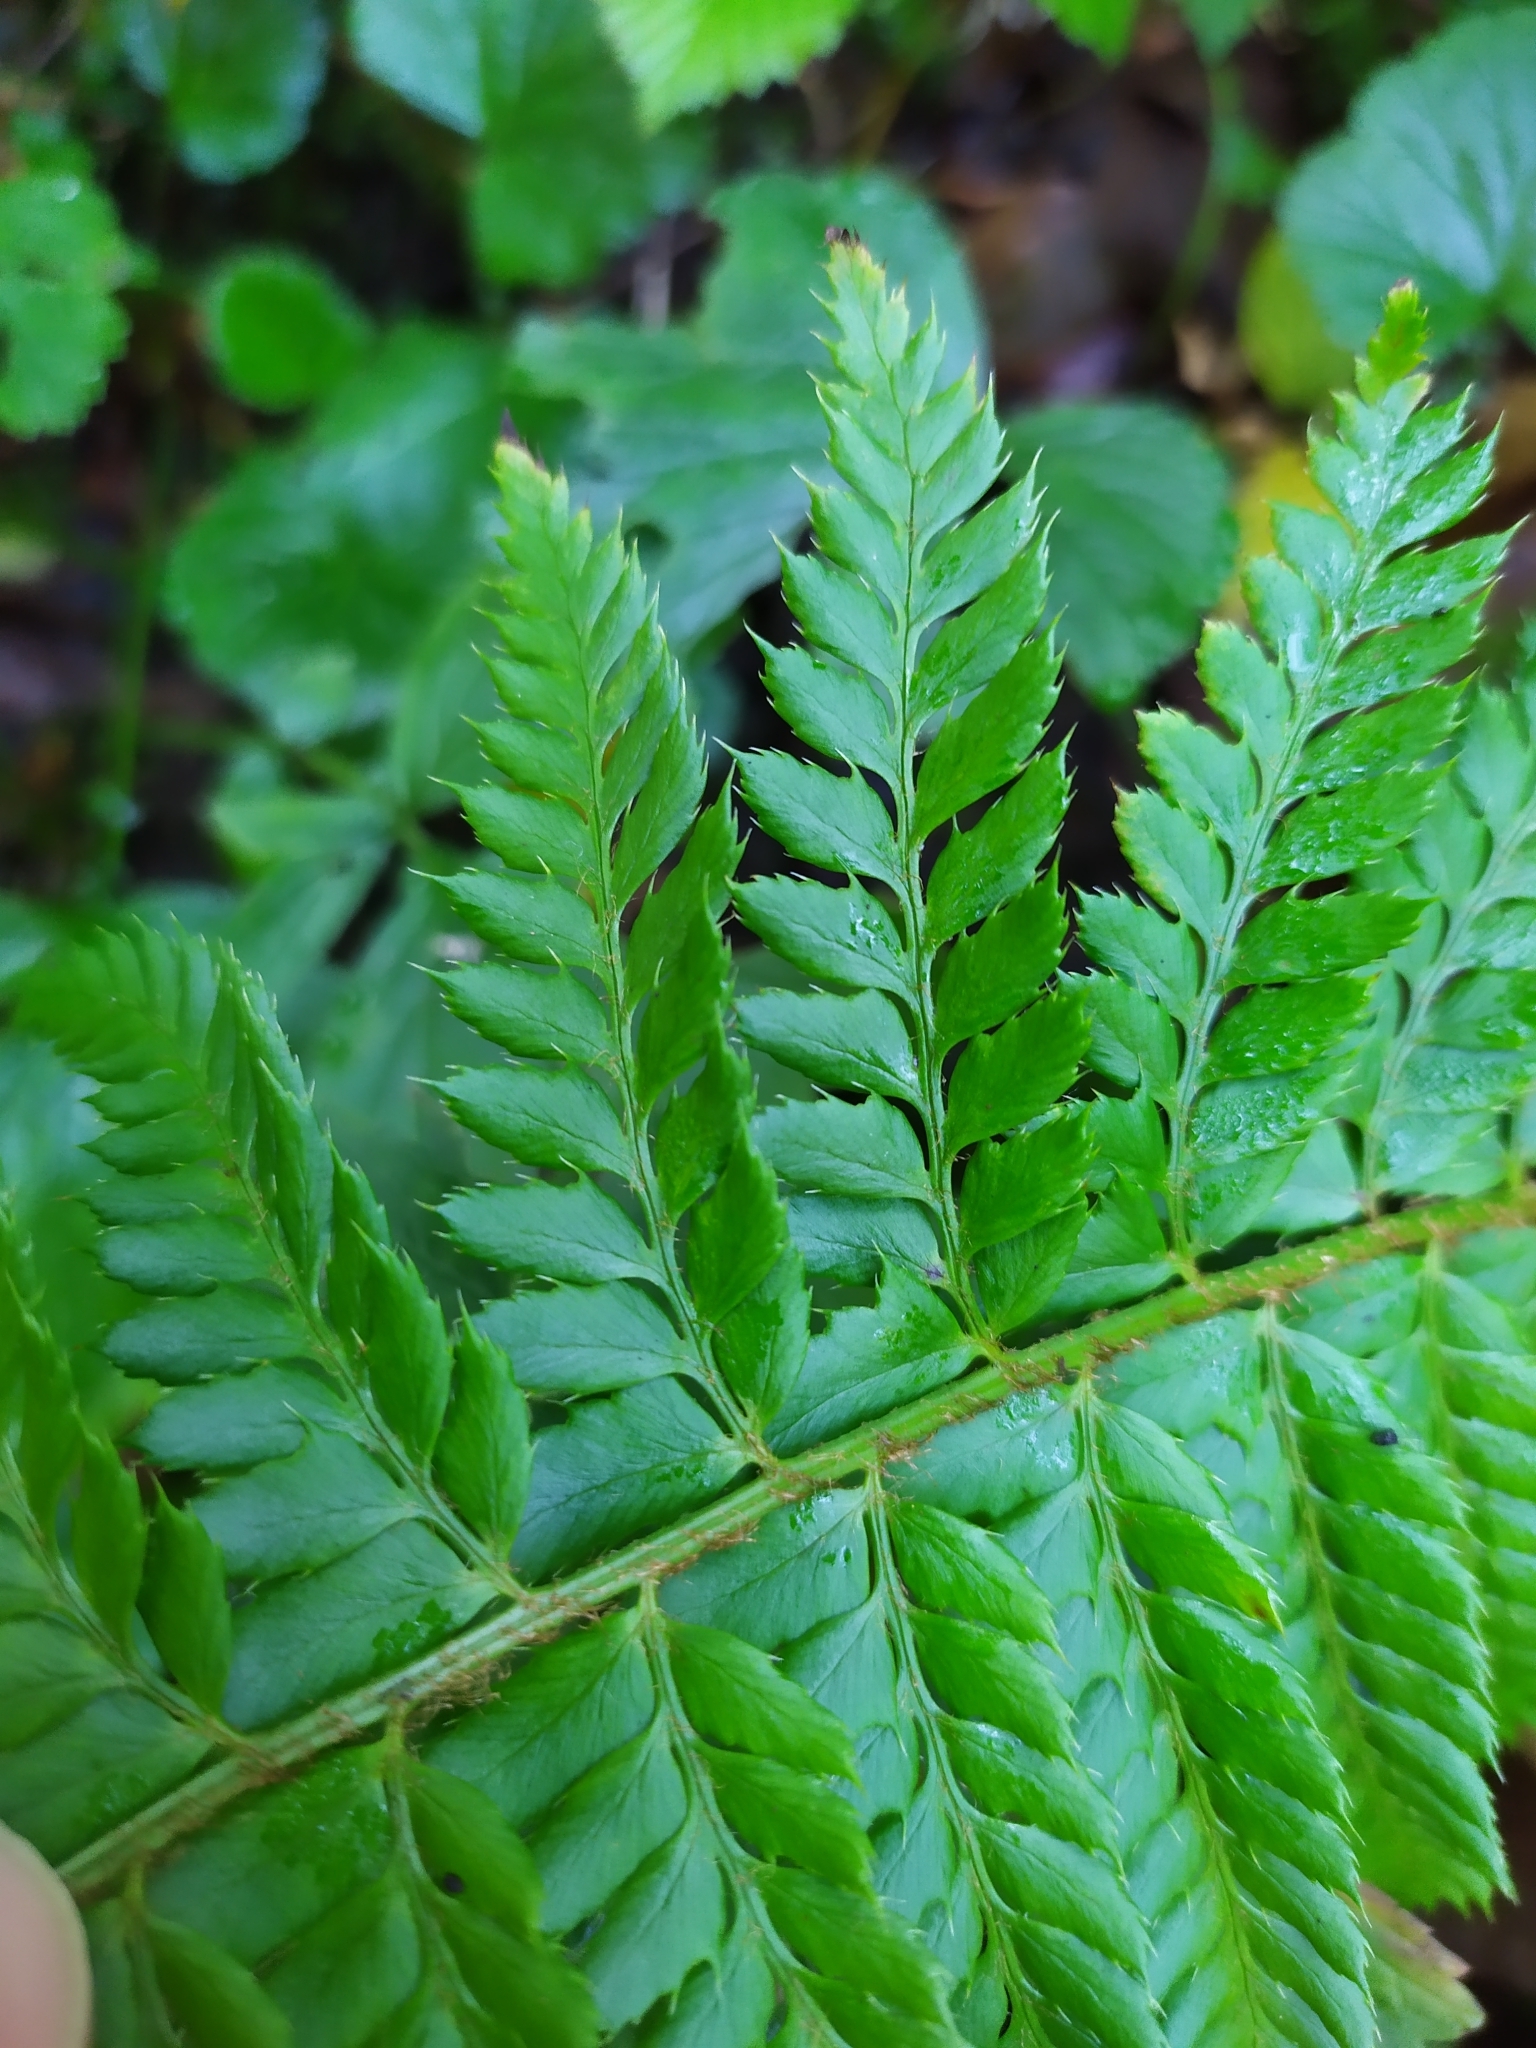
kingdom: Plantae
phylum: Tracheophyta
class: Polypodiopsida
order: Polypodiales
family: Dryopteridaceae
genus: Polystichum
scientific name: Polystichum aculeatum
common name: Hard shield-fern
